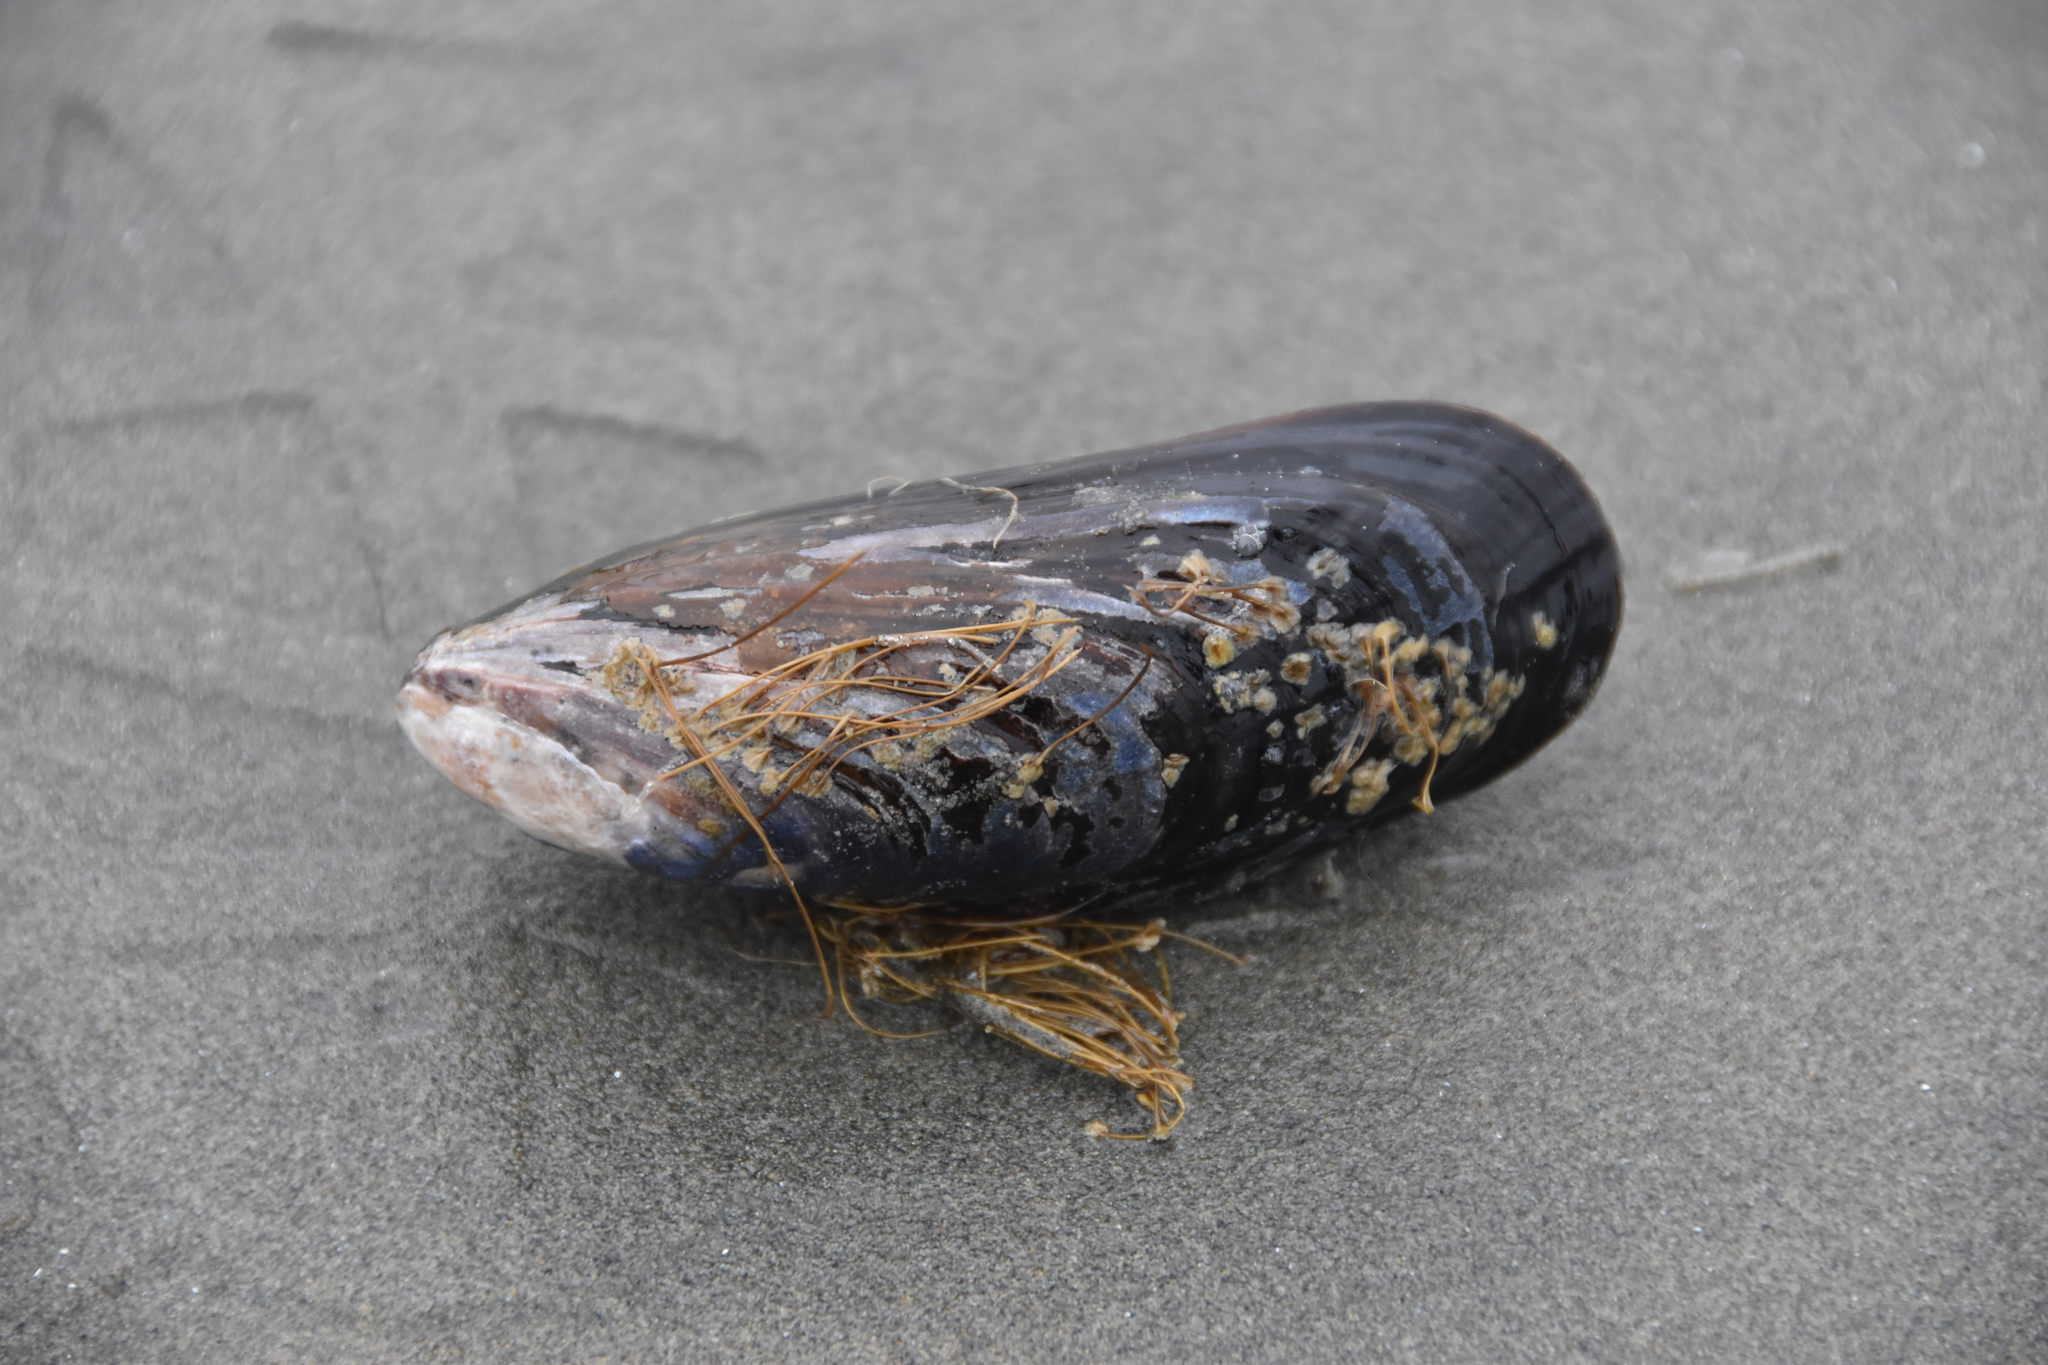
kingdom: Animalia
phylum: Mollusca
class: Bivalvia
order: Mytilida
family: Mytilidae
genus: Mytilus
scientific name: Mytilus californianus
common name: California mussel
